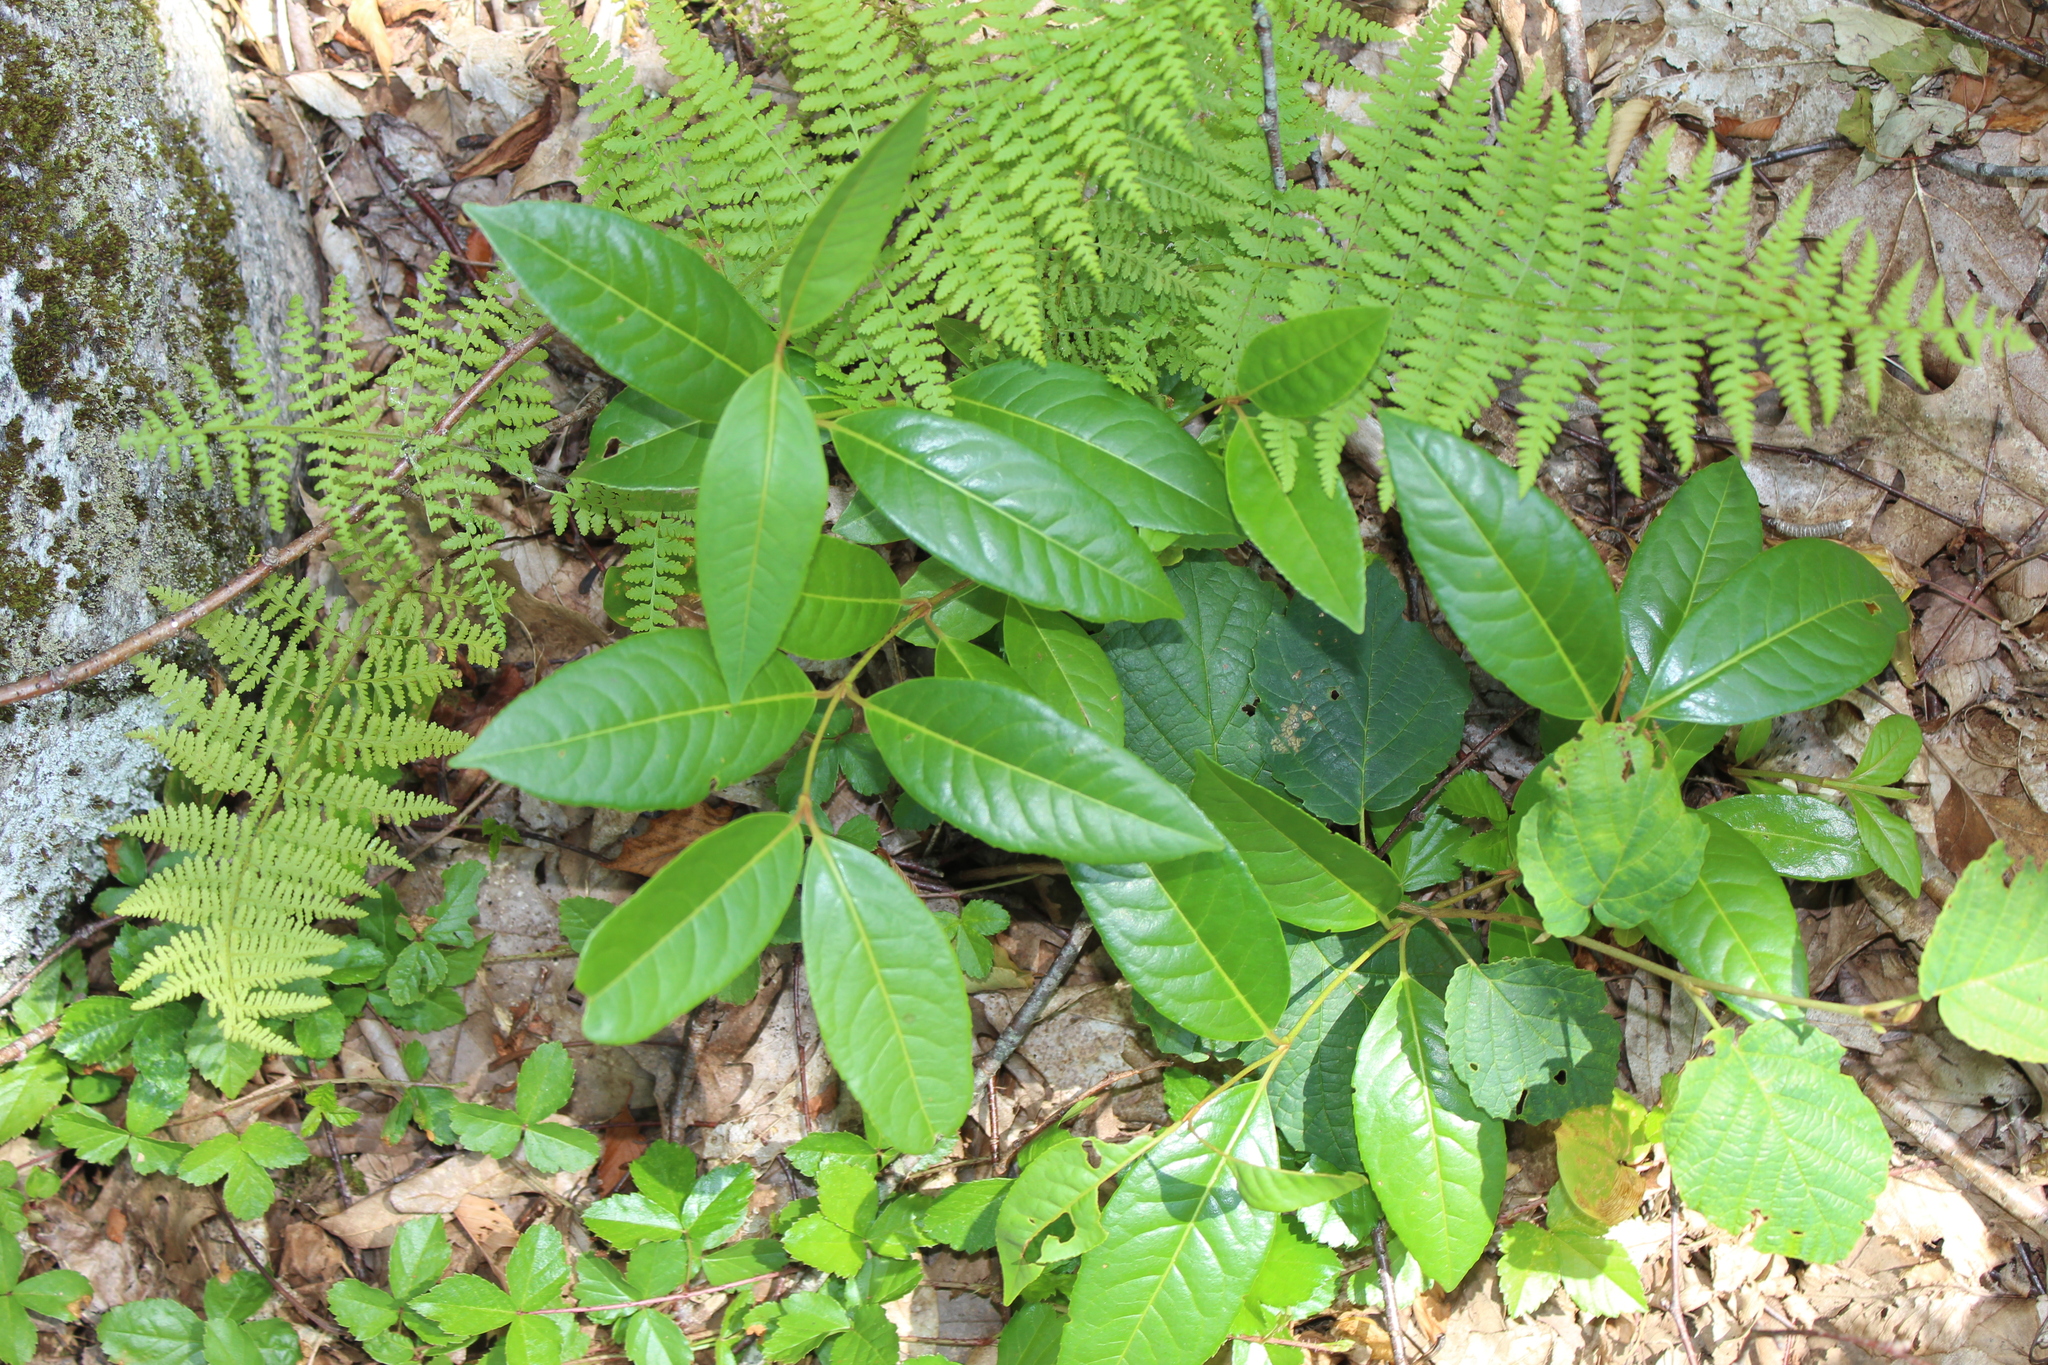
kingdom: Plantae
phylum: Tracheophyta
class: Magnoliopsida
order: Dipsacales
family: Viburnaceae
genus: Viburnum
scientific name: Viburnum cassinoides
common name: Swamp haw
